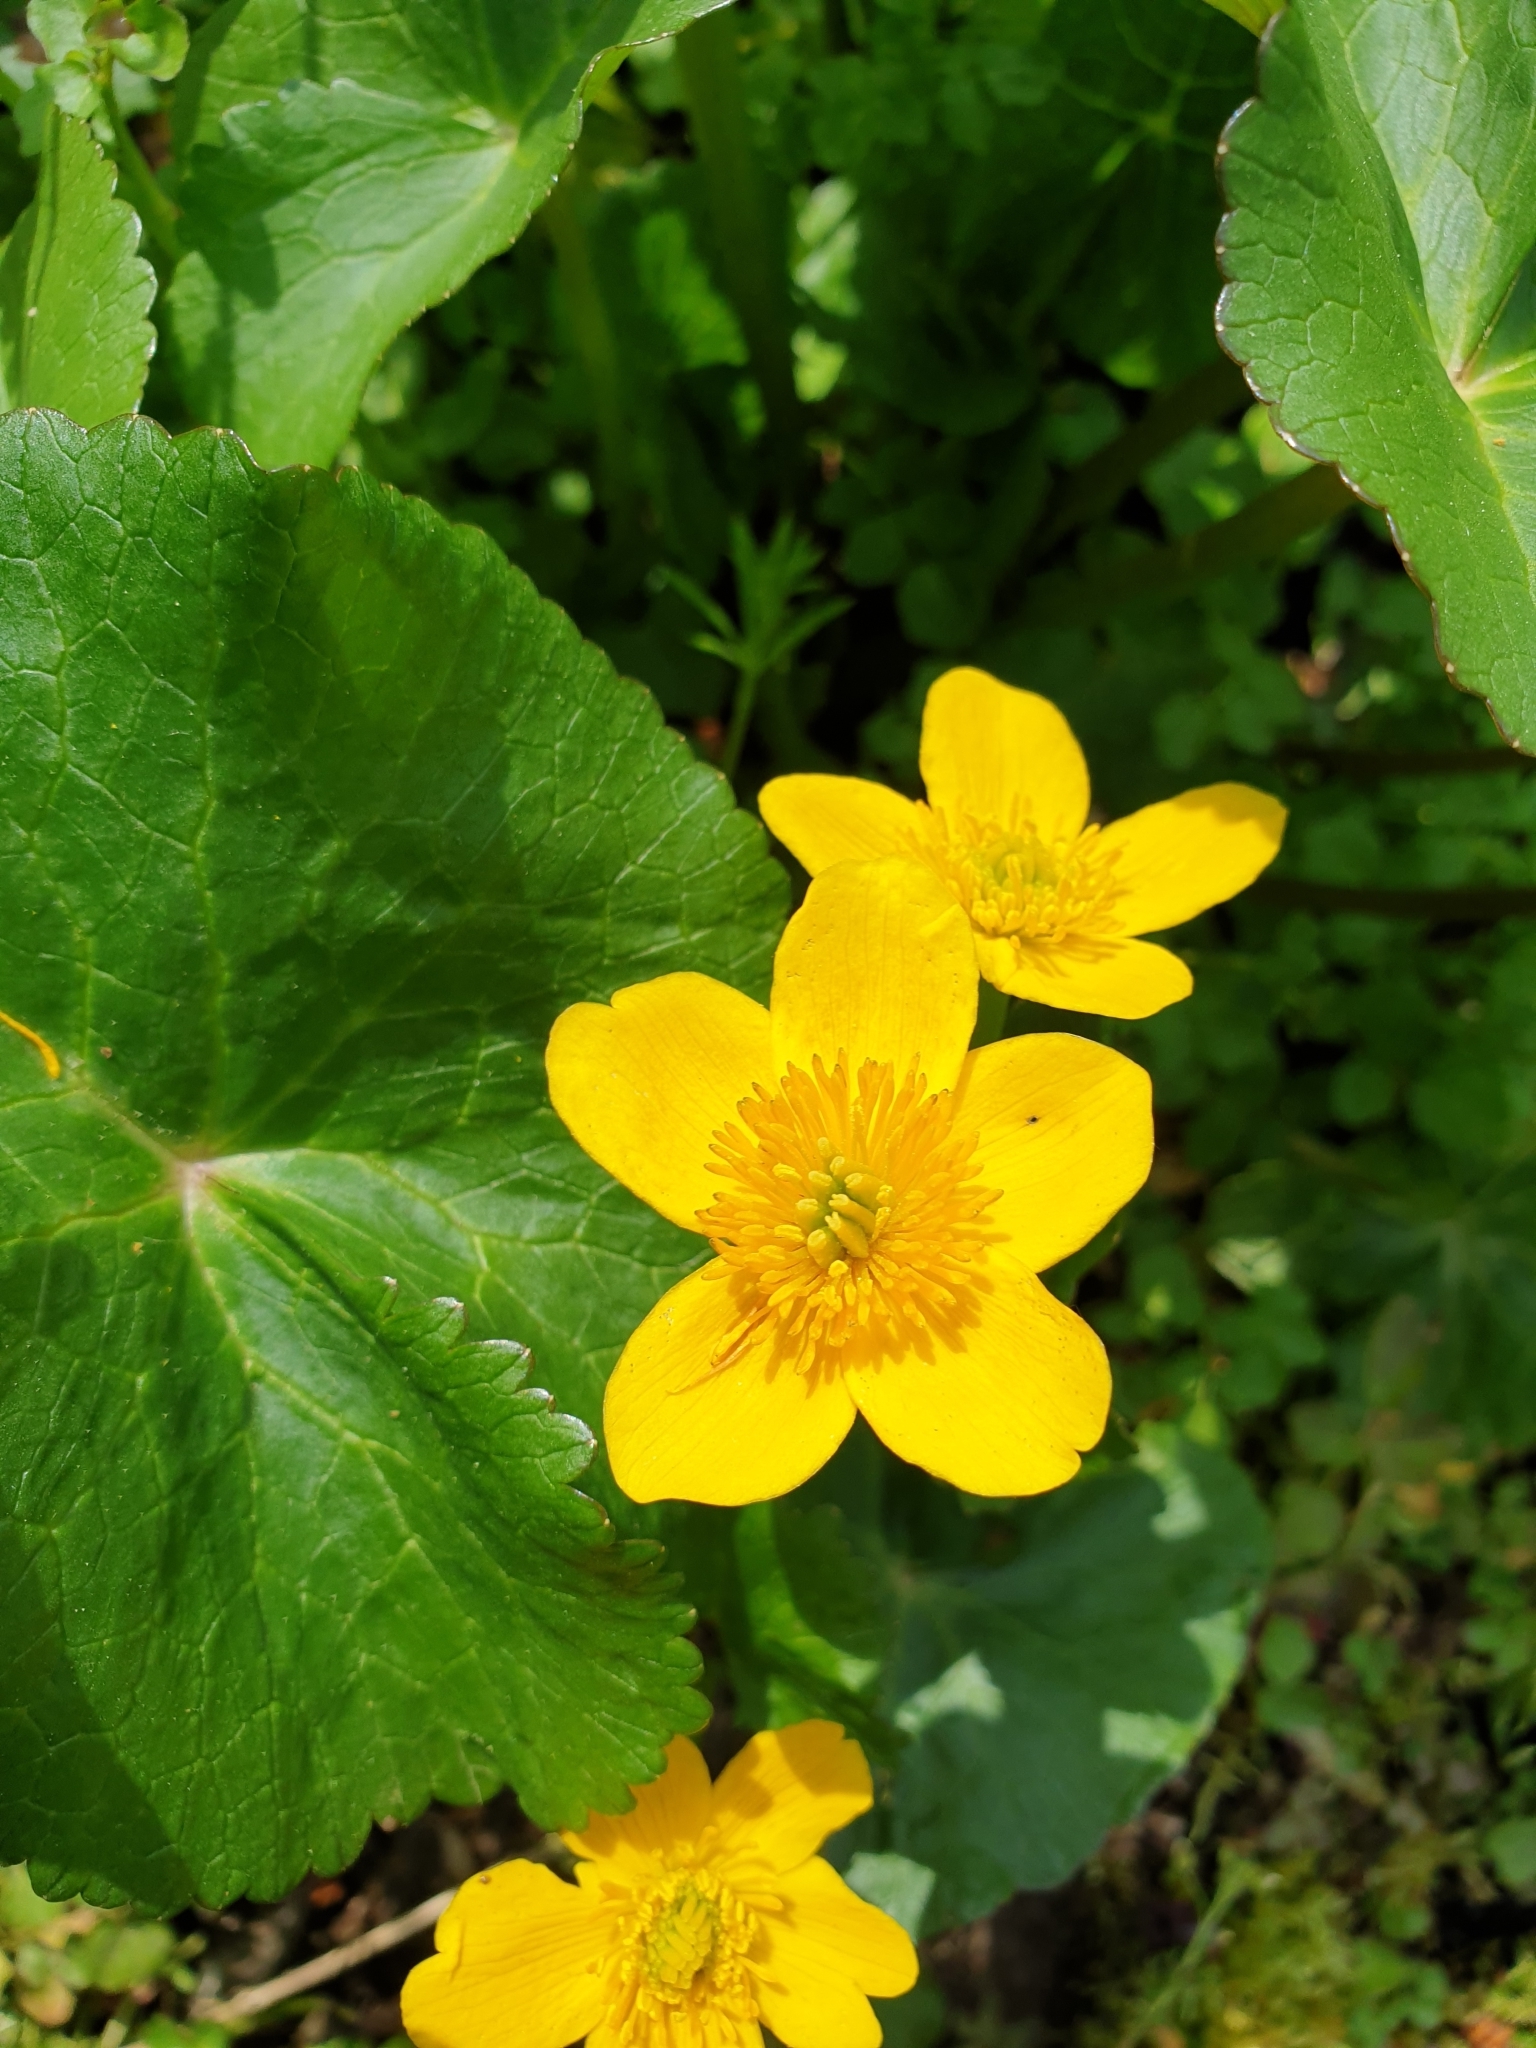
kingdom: Plantae
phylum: Tracheophyta
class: Magnoliopsida
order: Ranunculales
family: Ranunculaceae
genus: Caltha
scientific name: Caltha palustris
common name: Marsh marigold
